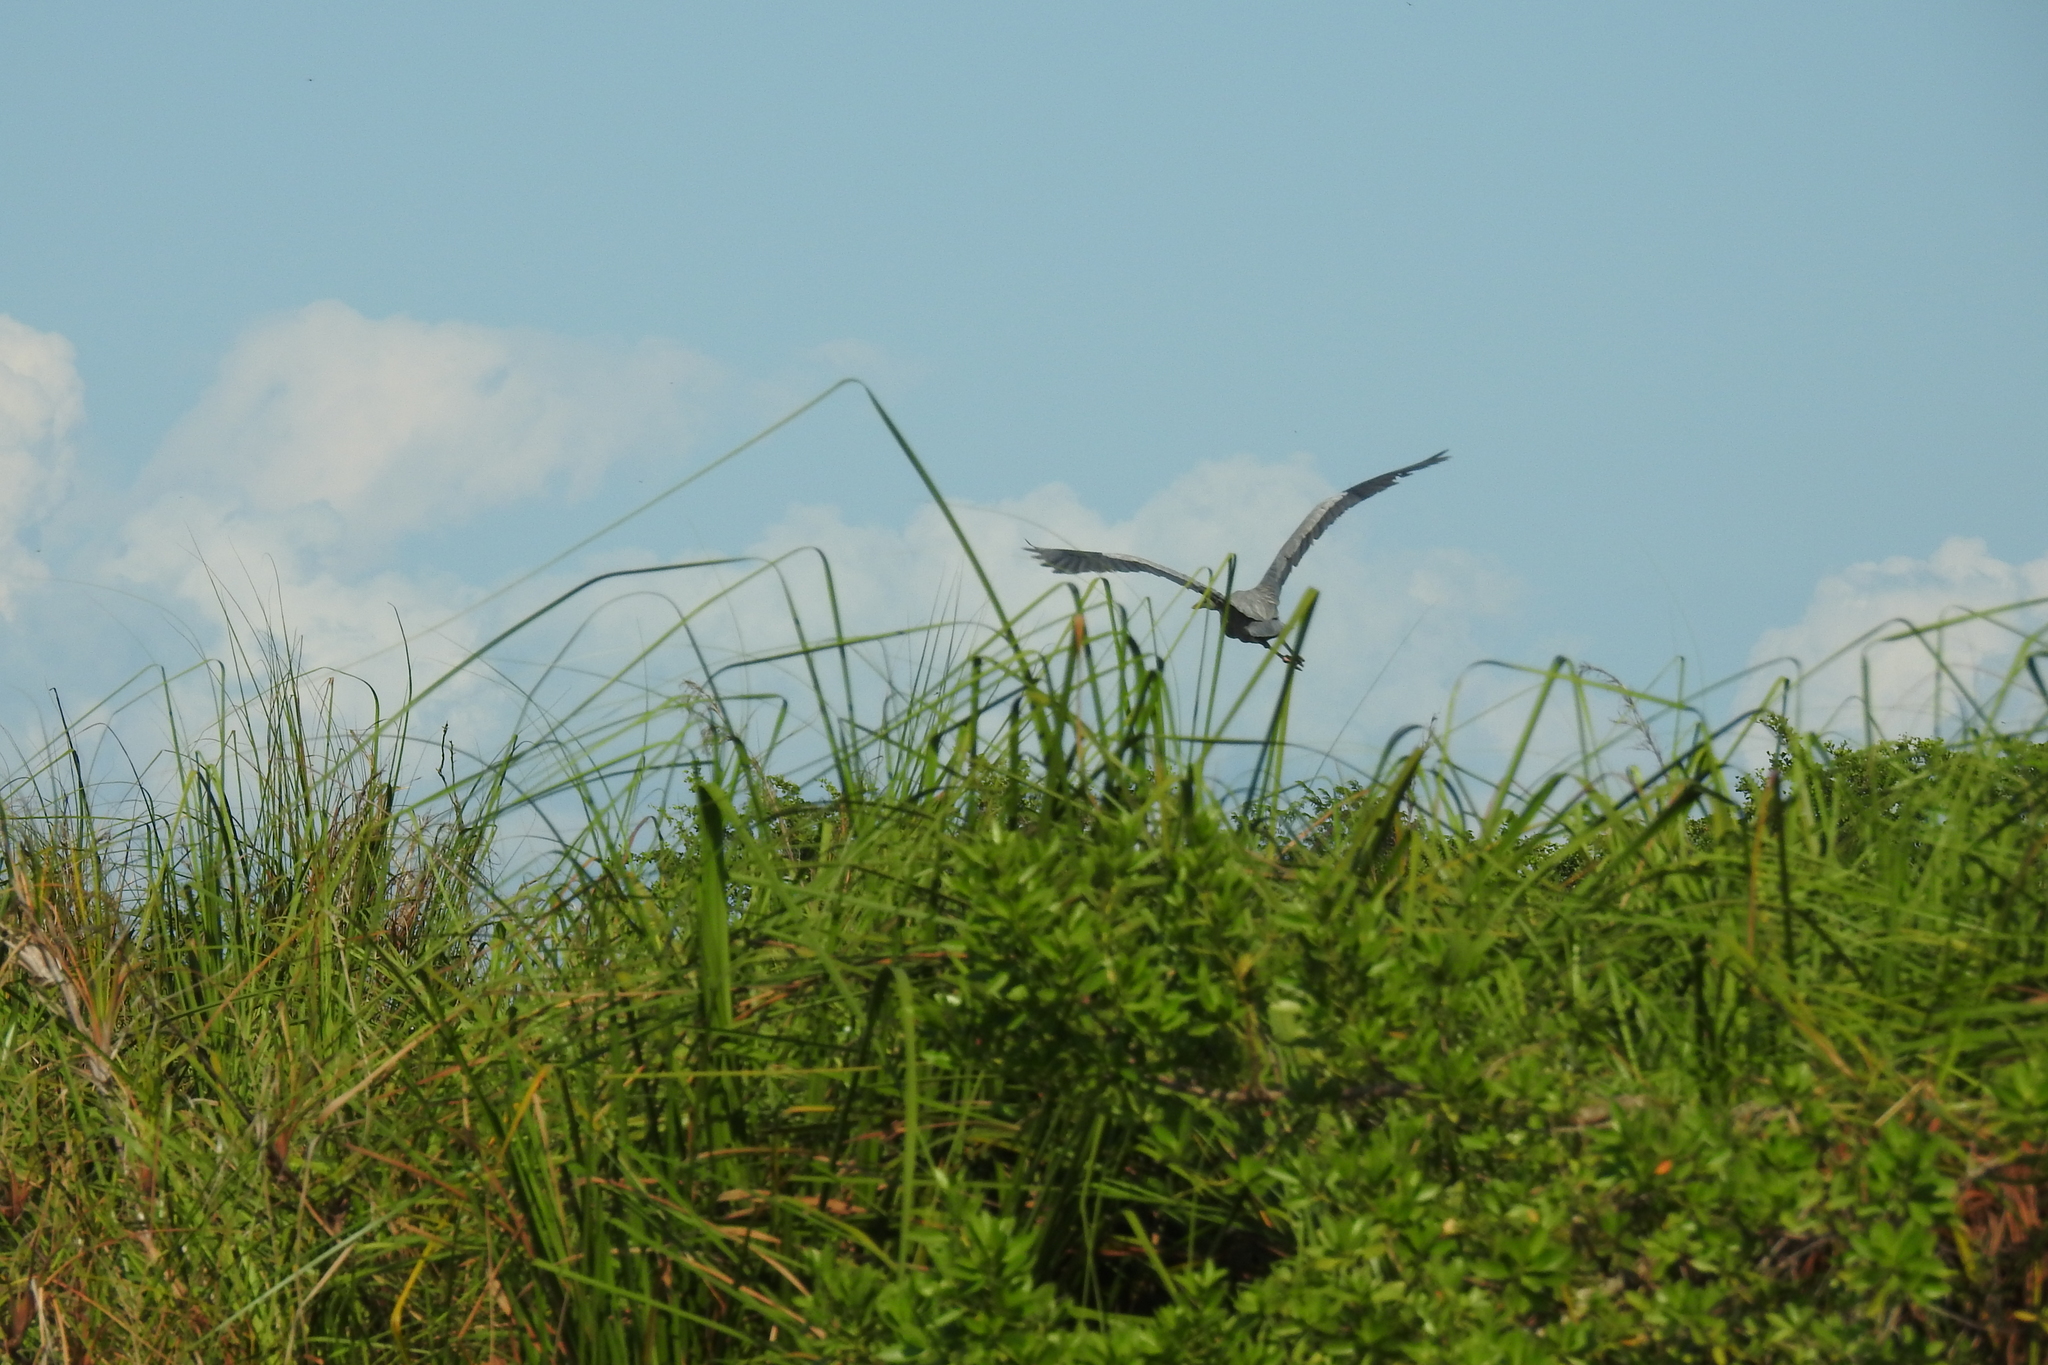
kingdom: Animalia
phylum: Chordata
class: Aves
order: Pelecaniformes
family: Ardeidae
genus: Ardea
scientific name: Ardea herodias
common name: Great blue heron
